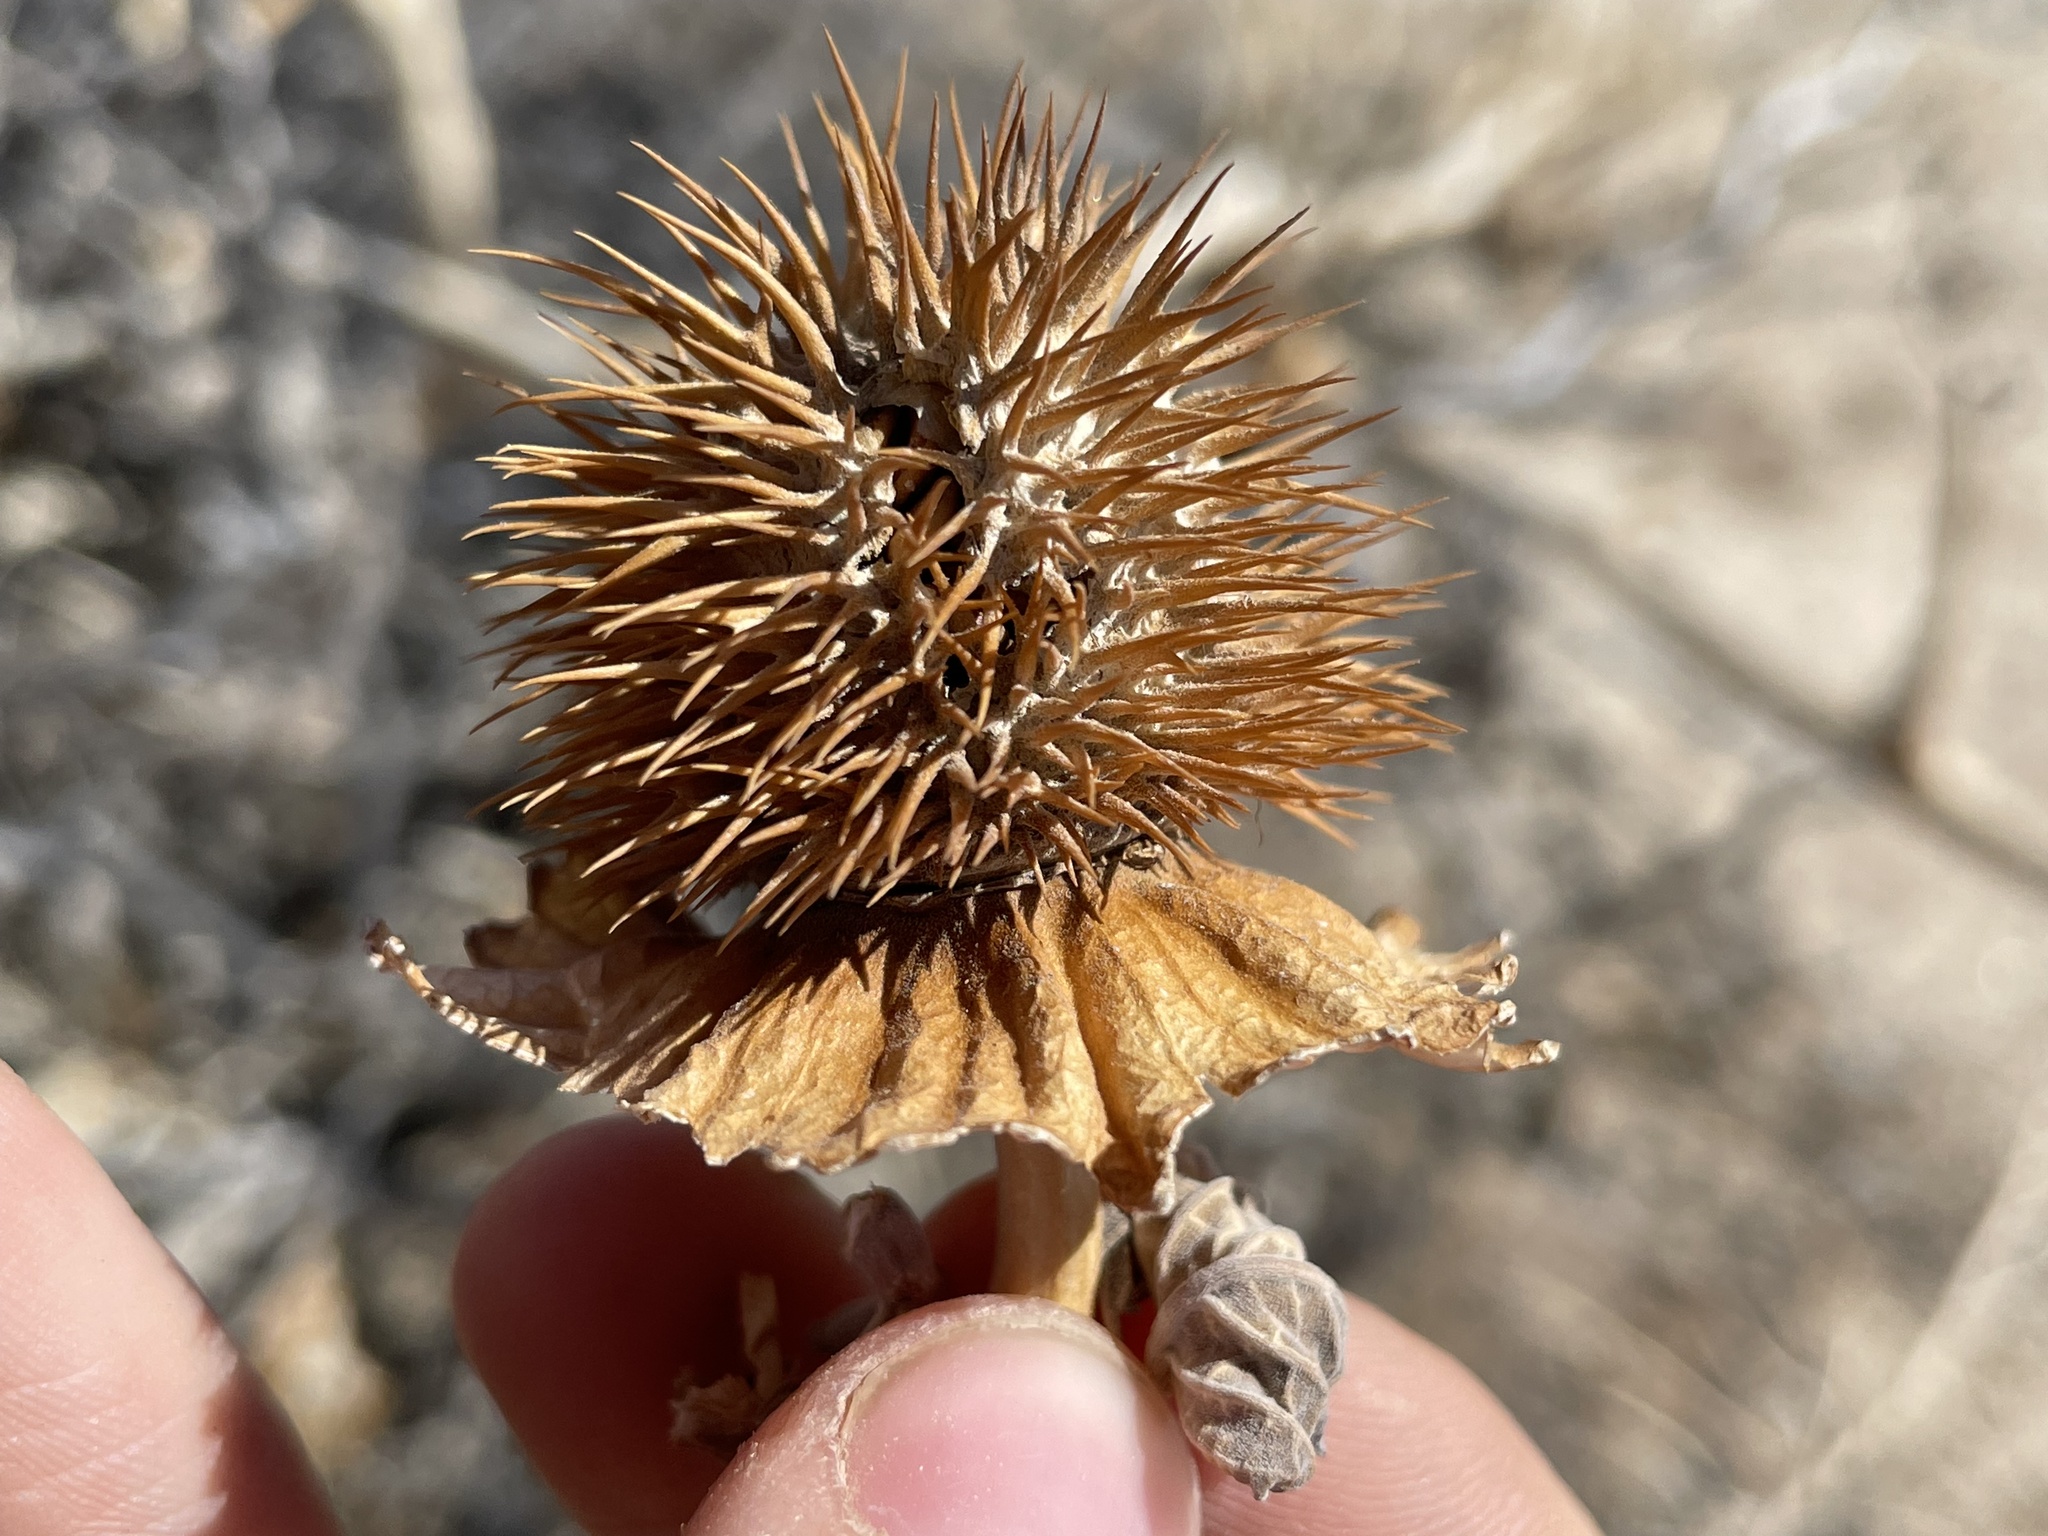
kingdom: Plantae
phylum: Tracheophyta
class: Magnoliopsida
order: Solanales
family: Solanaceae
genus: Datura
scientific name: Datura wrightii
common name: Sacred thorn-apple
